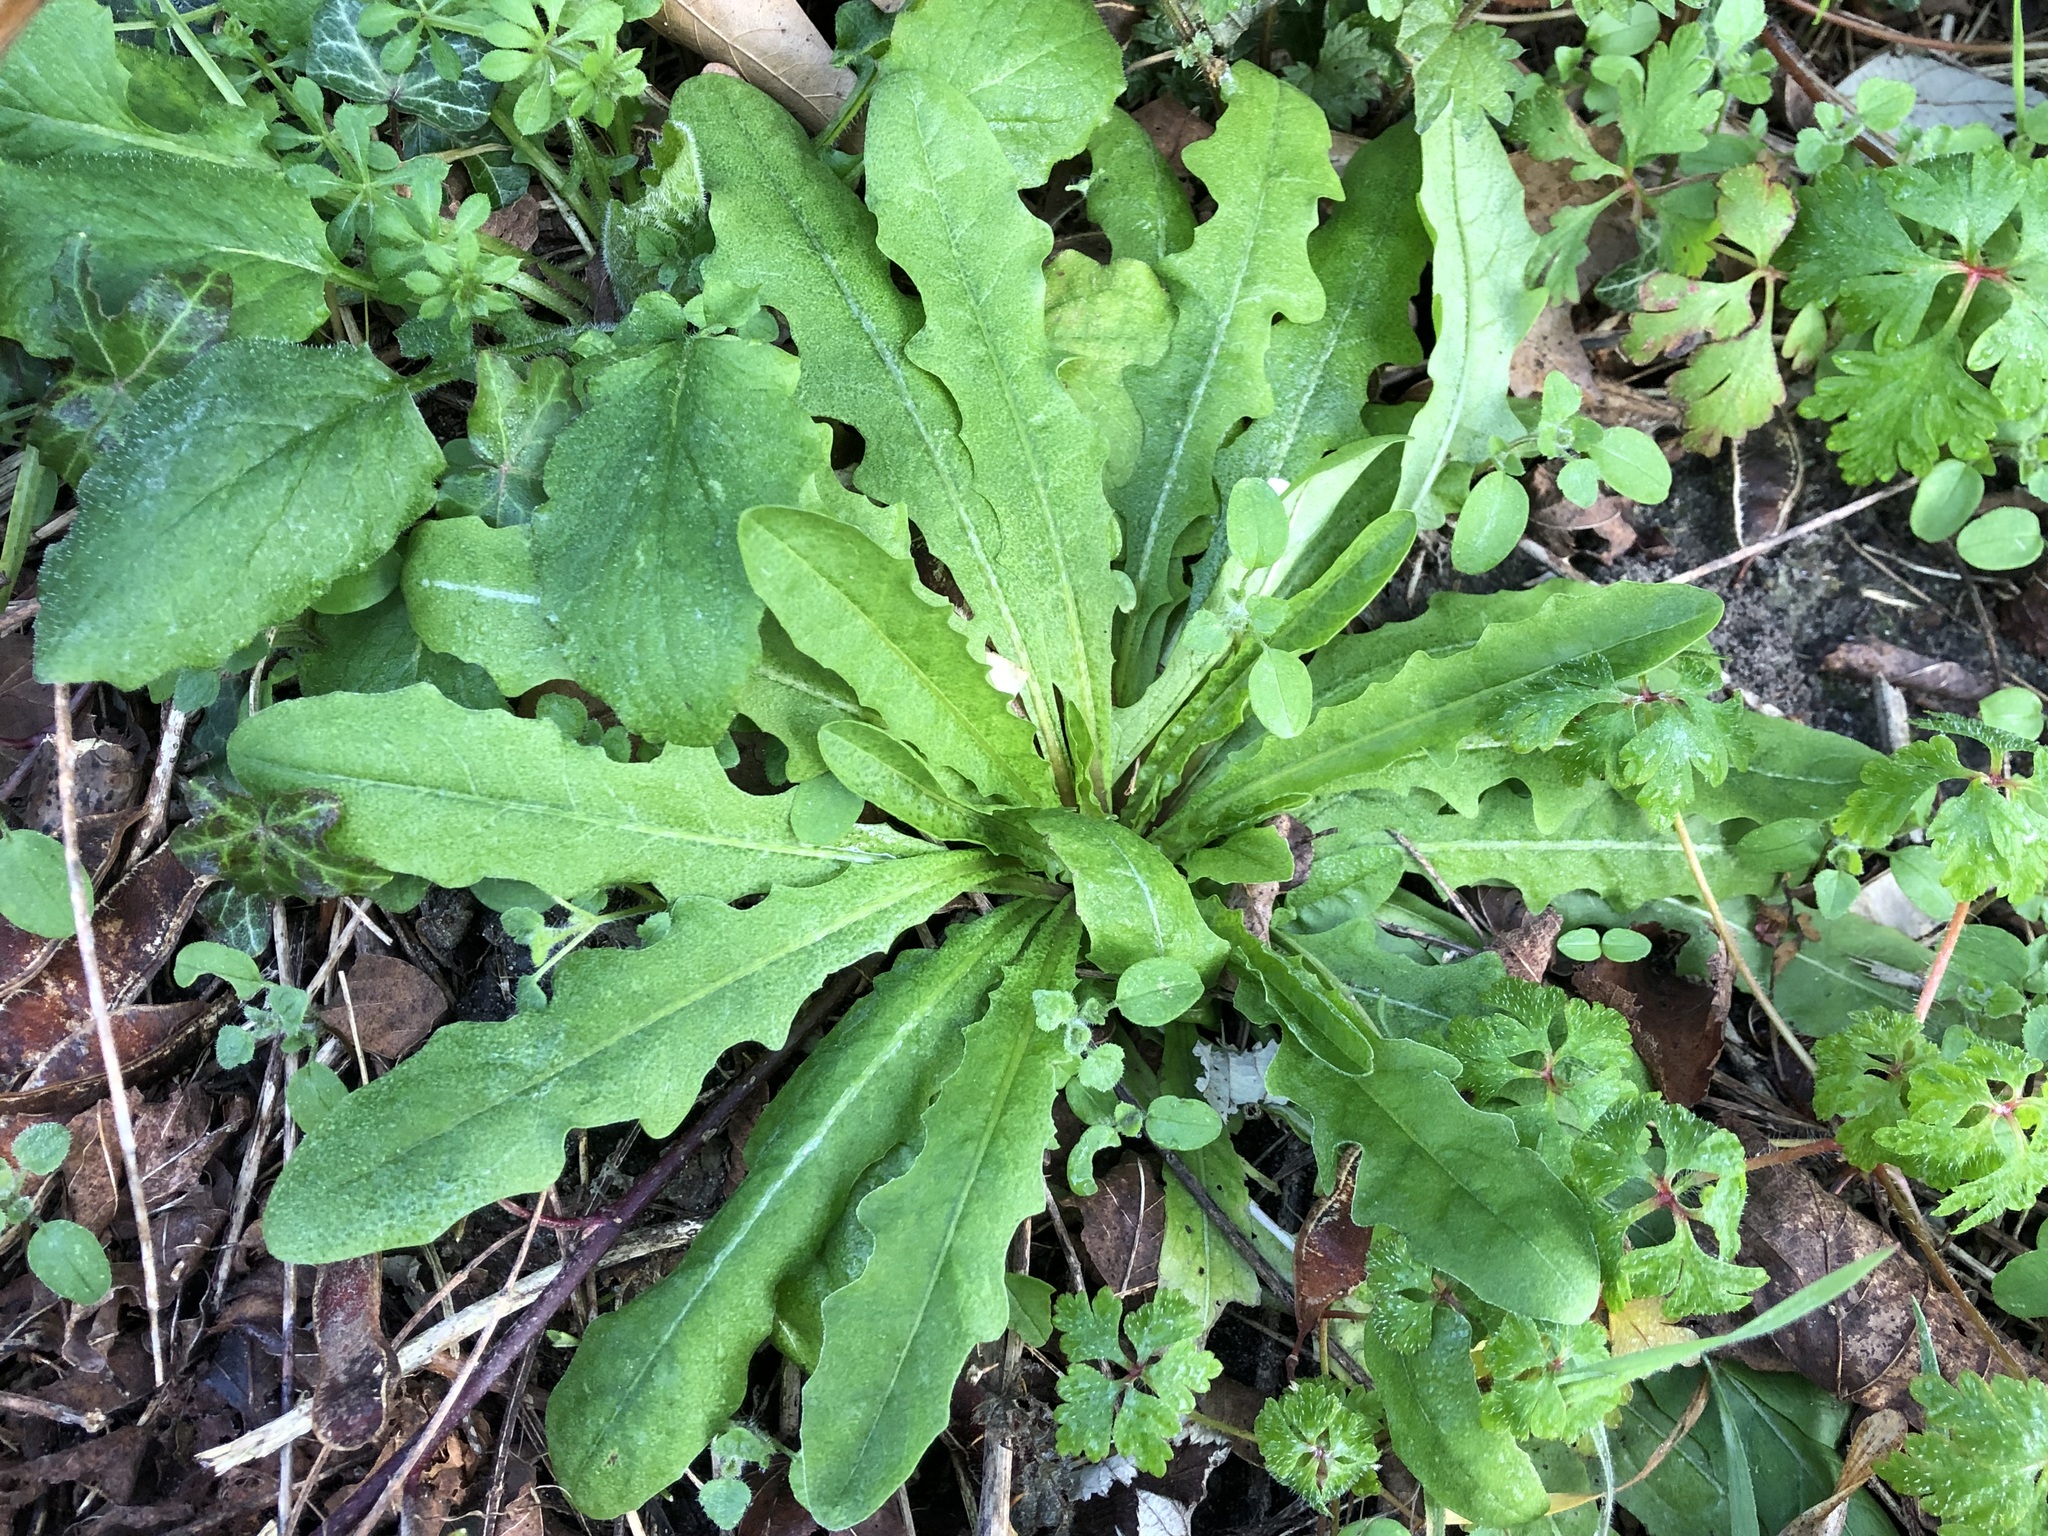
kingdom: Plantae
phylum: Tracheophyta
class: Magnoliopsida
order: Asterales
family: Asteraceae
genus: Hypochaeris
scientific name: Hypochaeris radicata
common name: Flatweed
